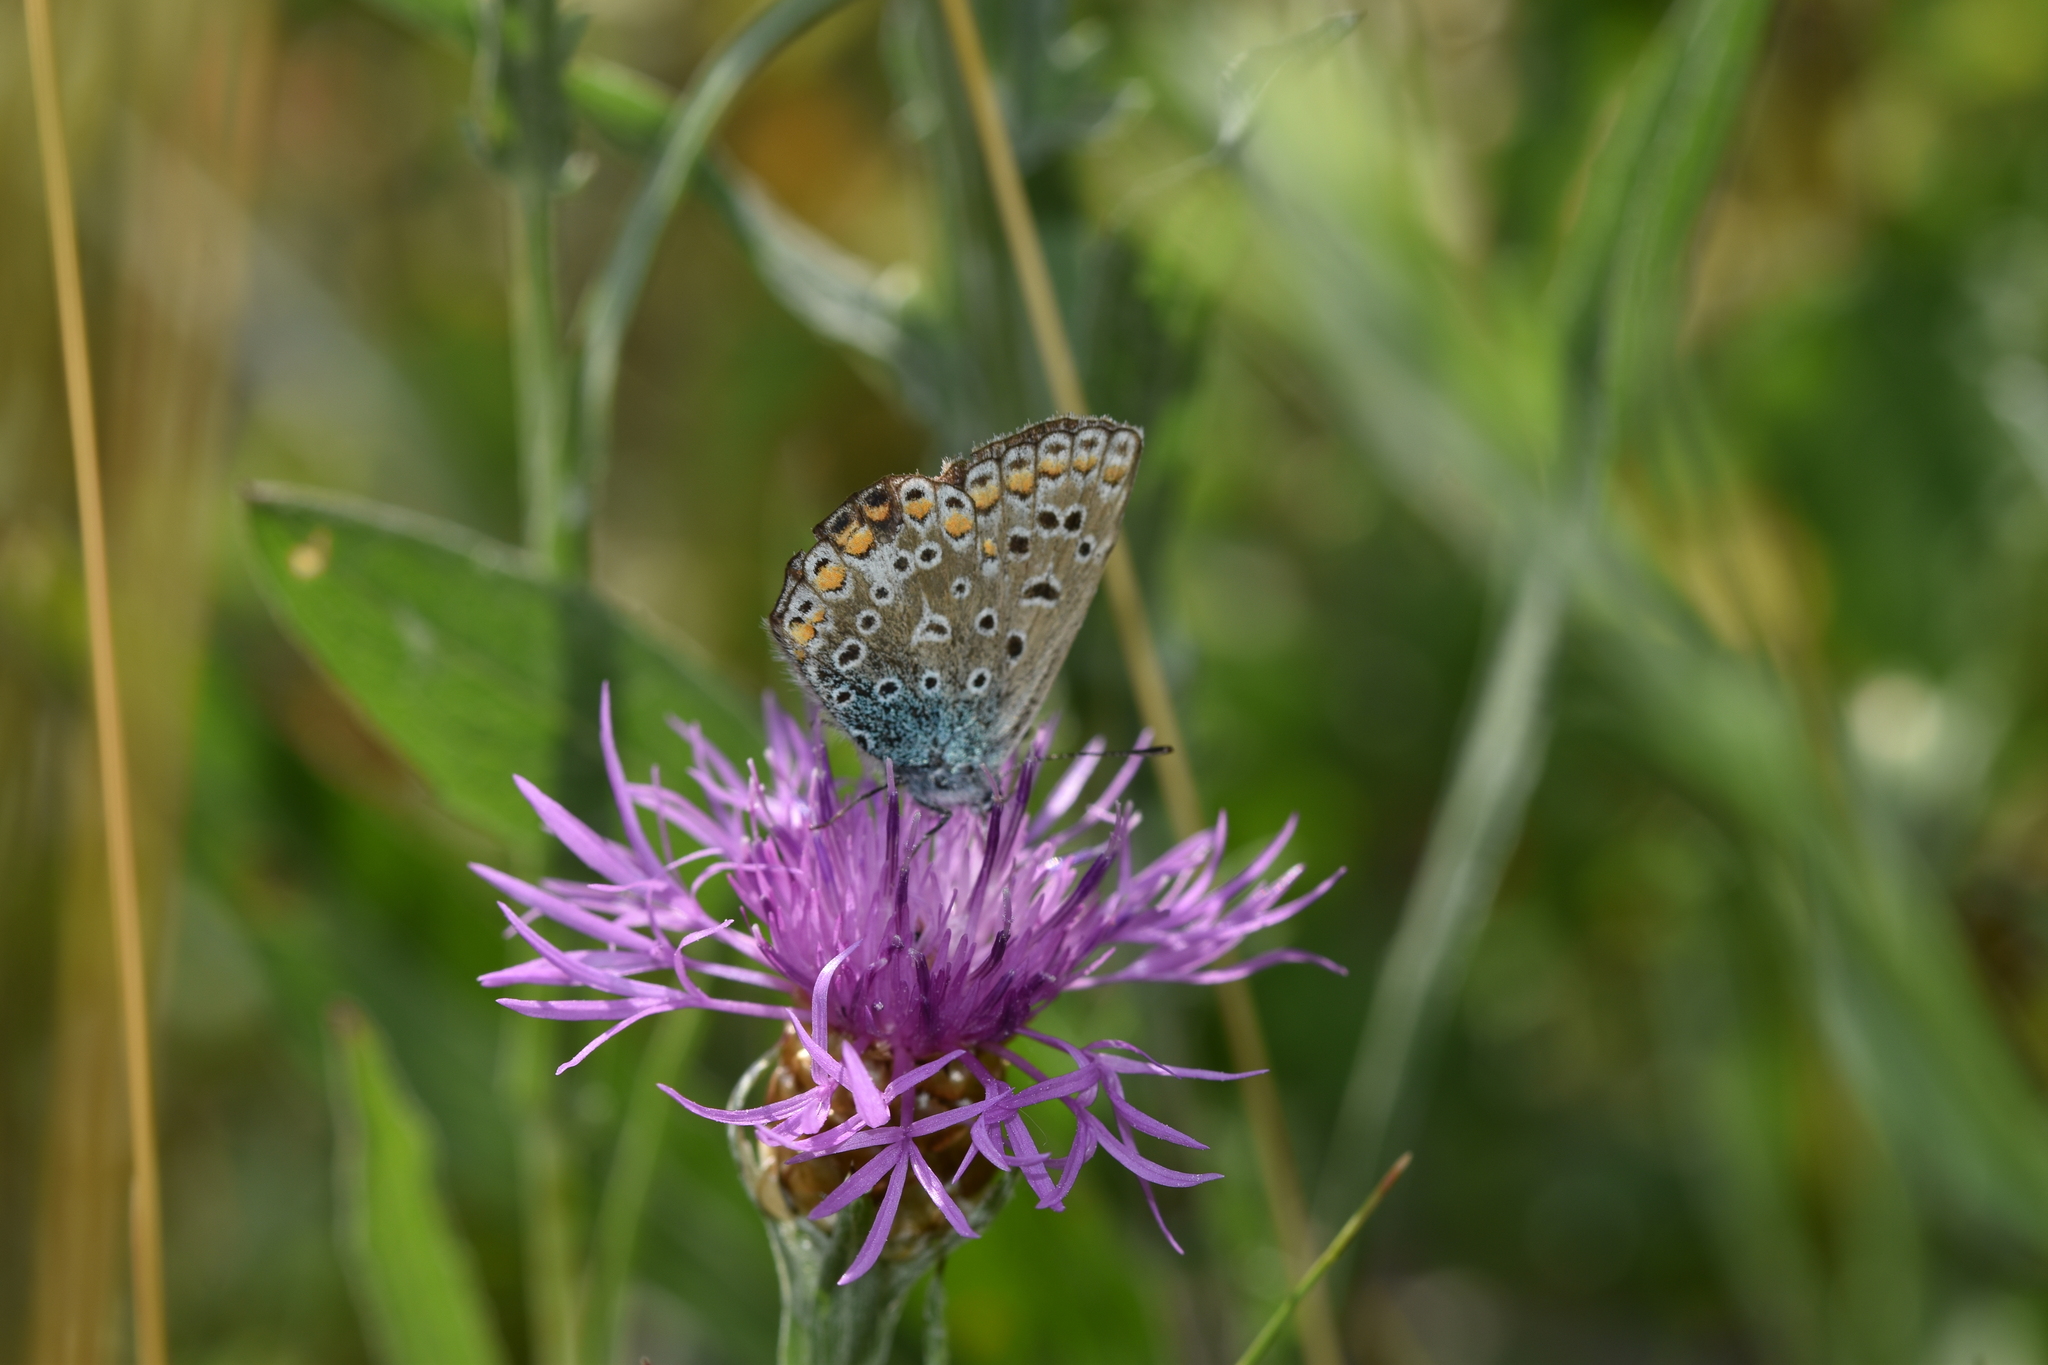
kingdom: Animalia
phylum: Arthropoda
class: Insecta
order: Lepidoptera
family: Lycaenidae
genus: Polyommatus
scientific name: Polyommatus icarus
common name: Common blue
